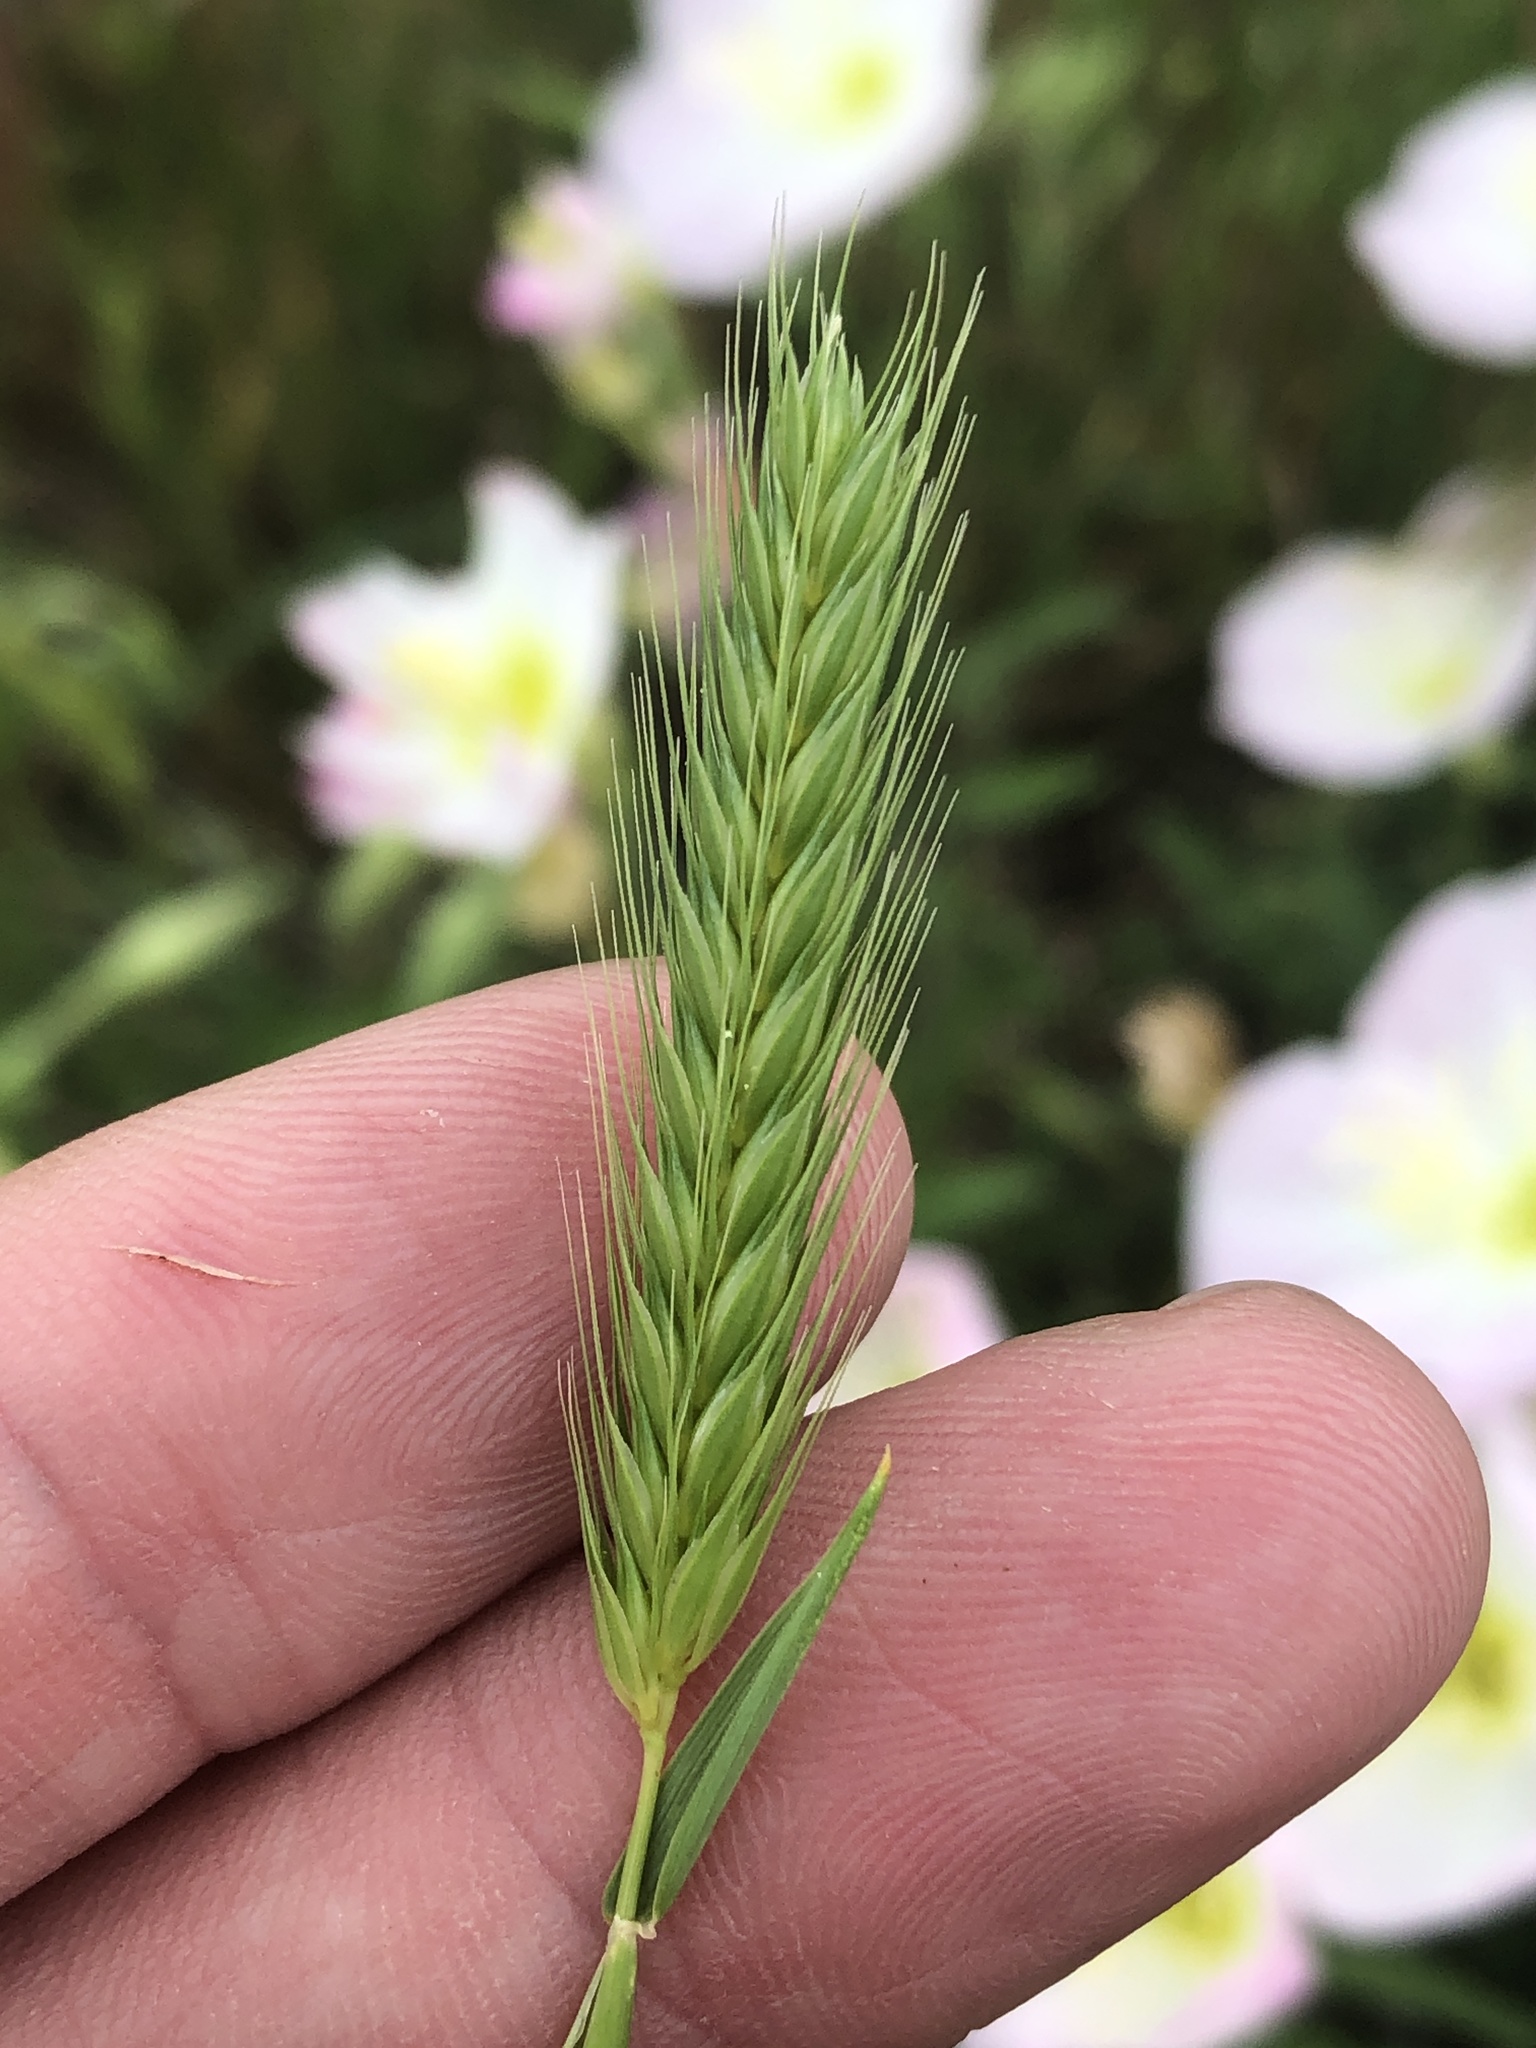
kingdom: Plantae
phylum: Tracheophyta
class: Liliopsida
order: Poales
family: Poaceae
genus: Hordeum
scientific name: Hordeum pusillum
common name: Little barley
